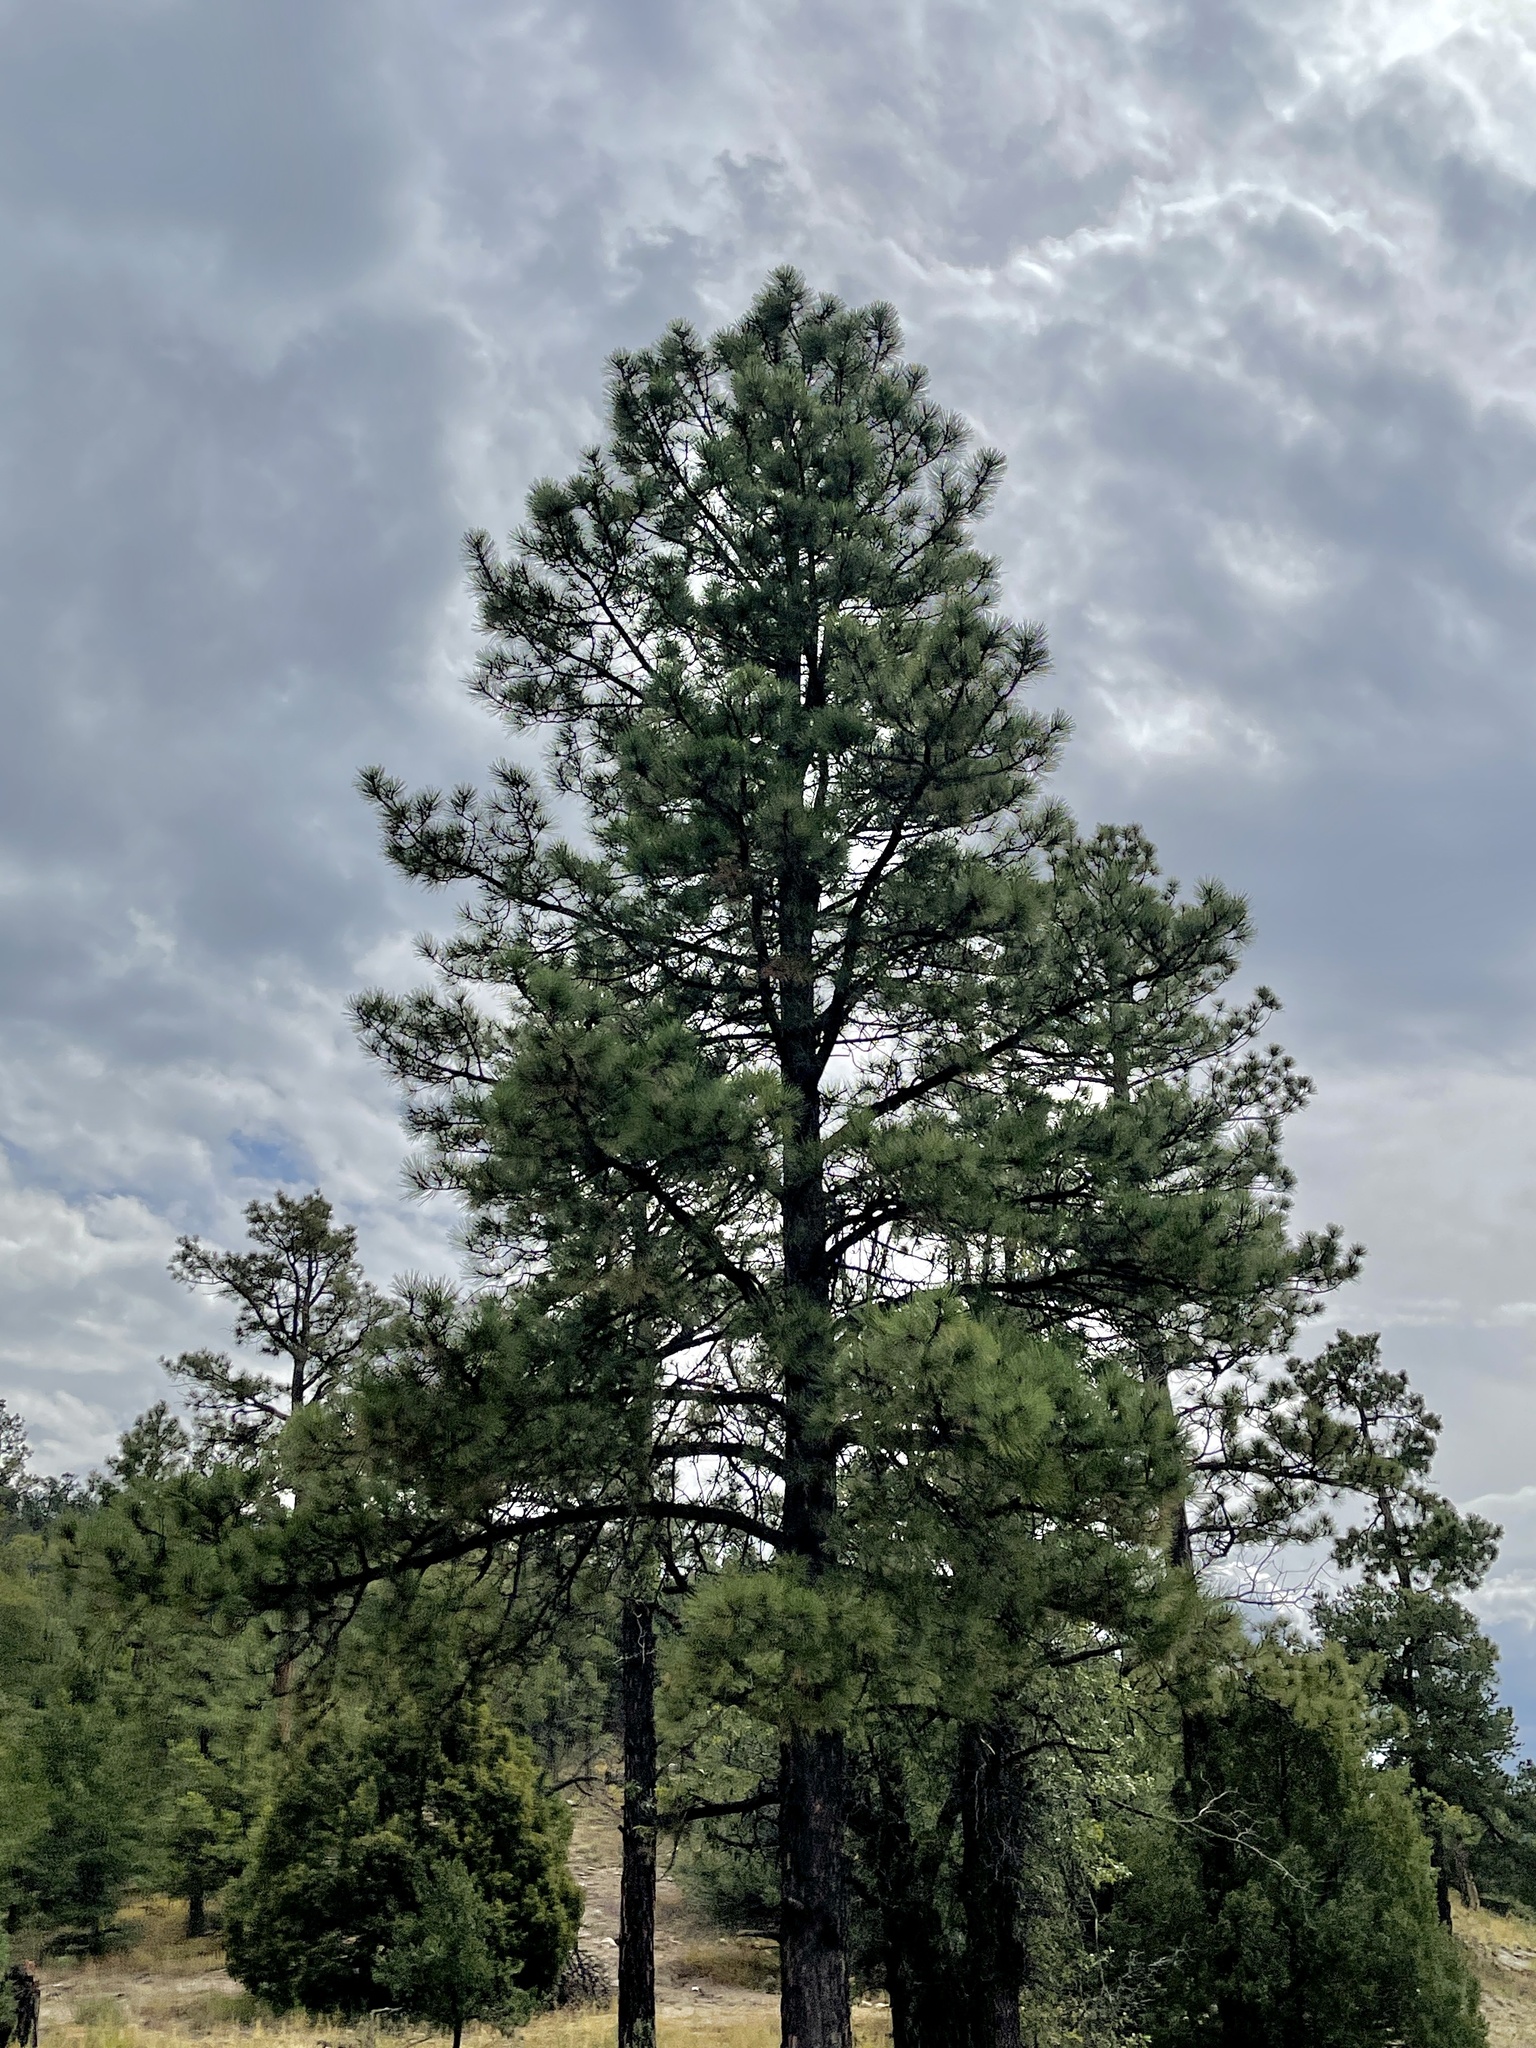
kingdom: Plantae
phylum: Tracheophyta
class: Pinopsida
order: Pinales
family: Pinaceae
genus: Pinus
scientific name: Pinus ponderosa
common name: Western yellow-pine
